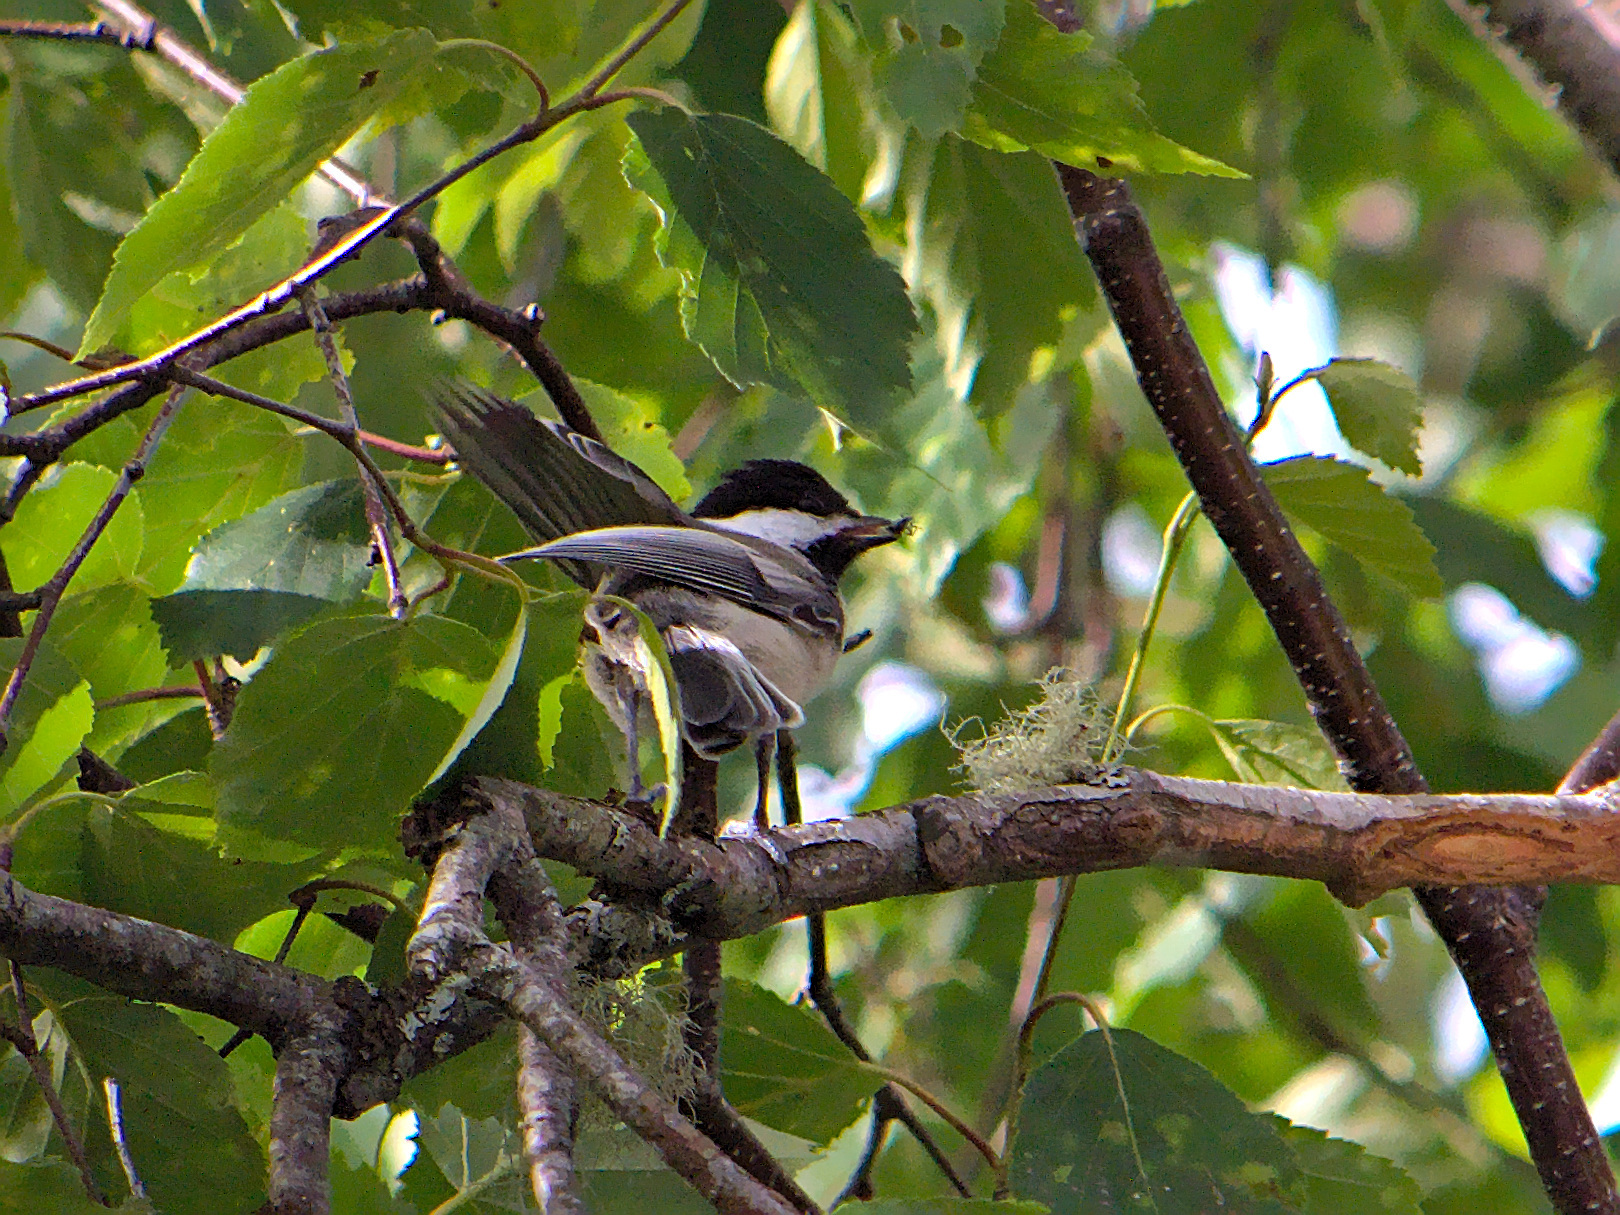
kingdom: Animalia
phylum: Chordata
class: Aves
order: Passeriformes
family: Paridae
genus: Poecile
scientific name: Poecile atricapillus
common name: Black-capped chickadee
